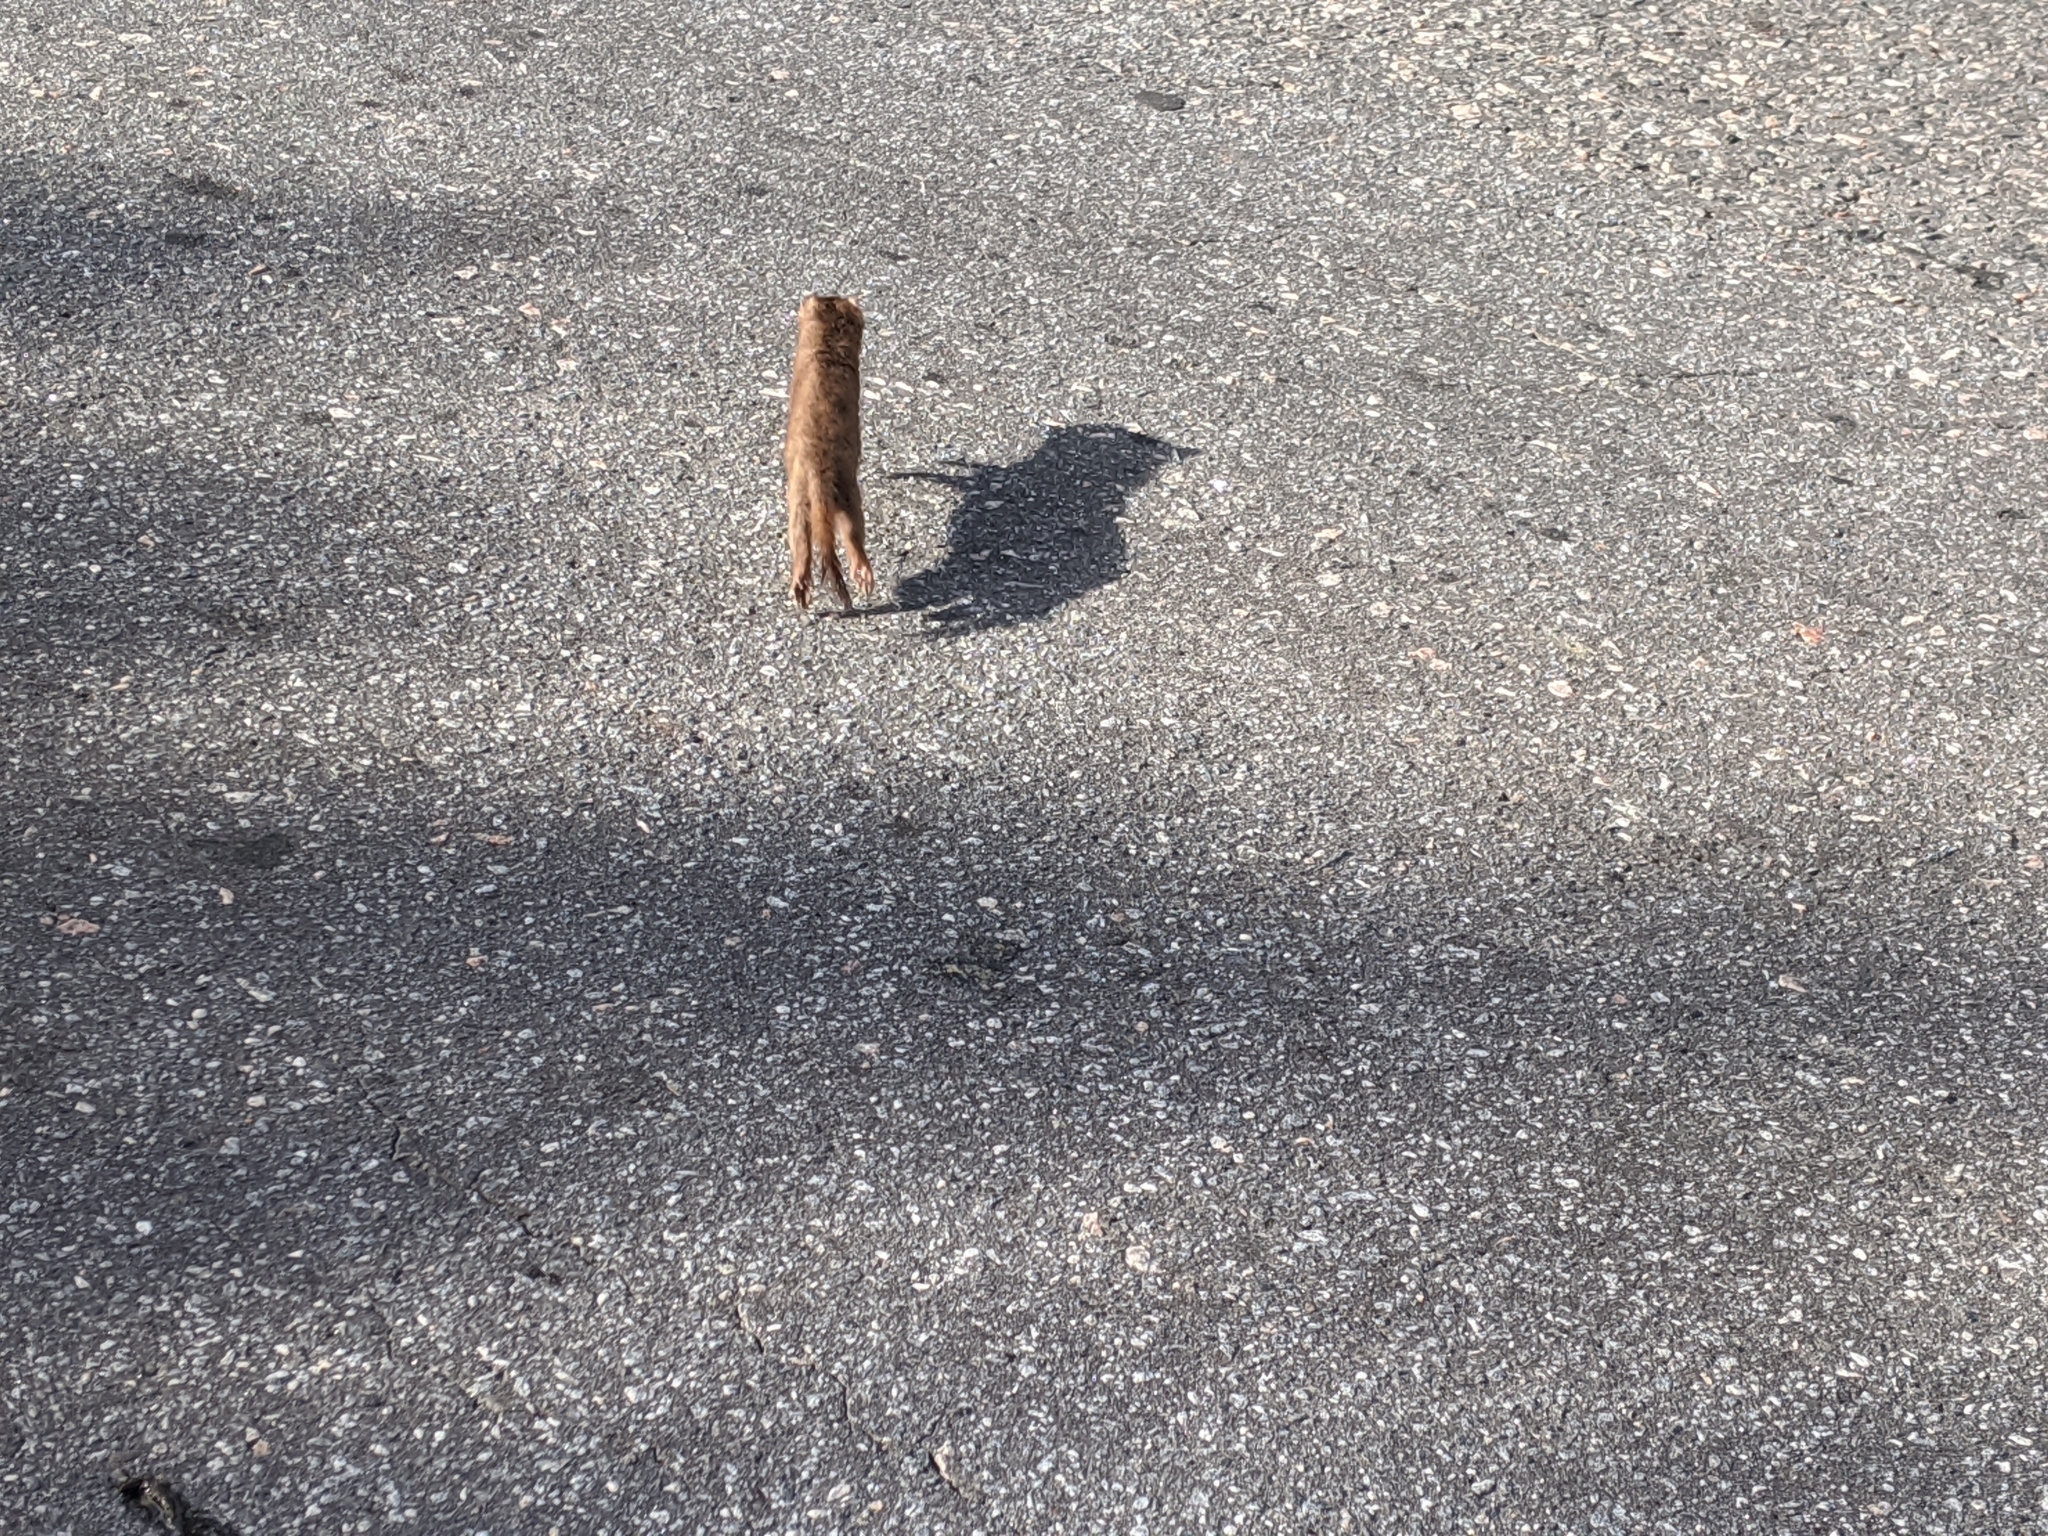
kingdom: Animalia
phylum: Chordata
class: Mammalia
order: Carnivora
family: Mustelidae
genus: Mustela
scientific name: Mustela erminea
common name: Stoat
